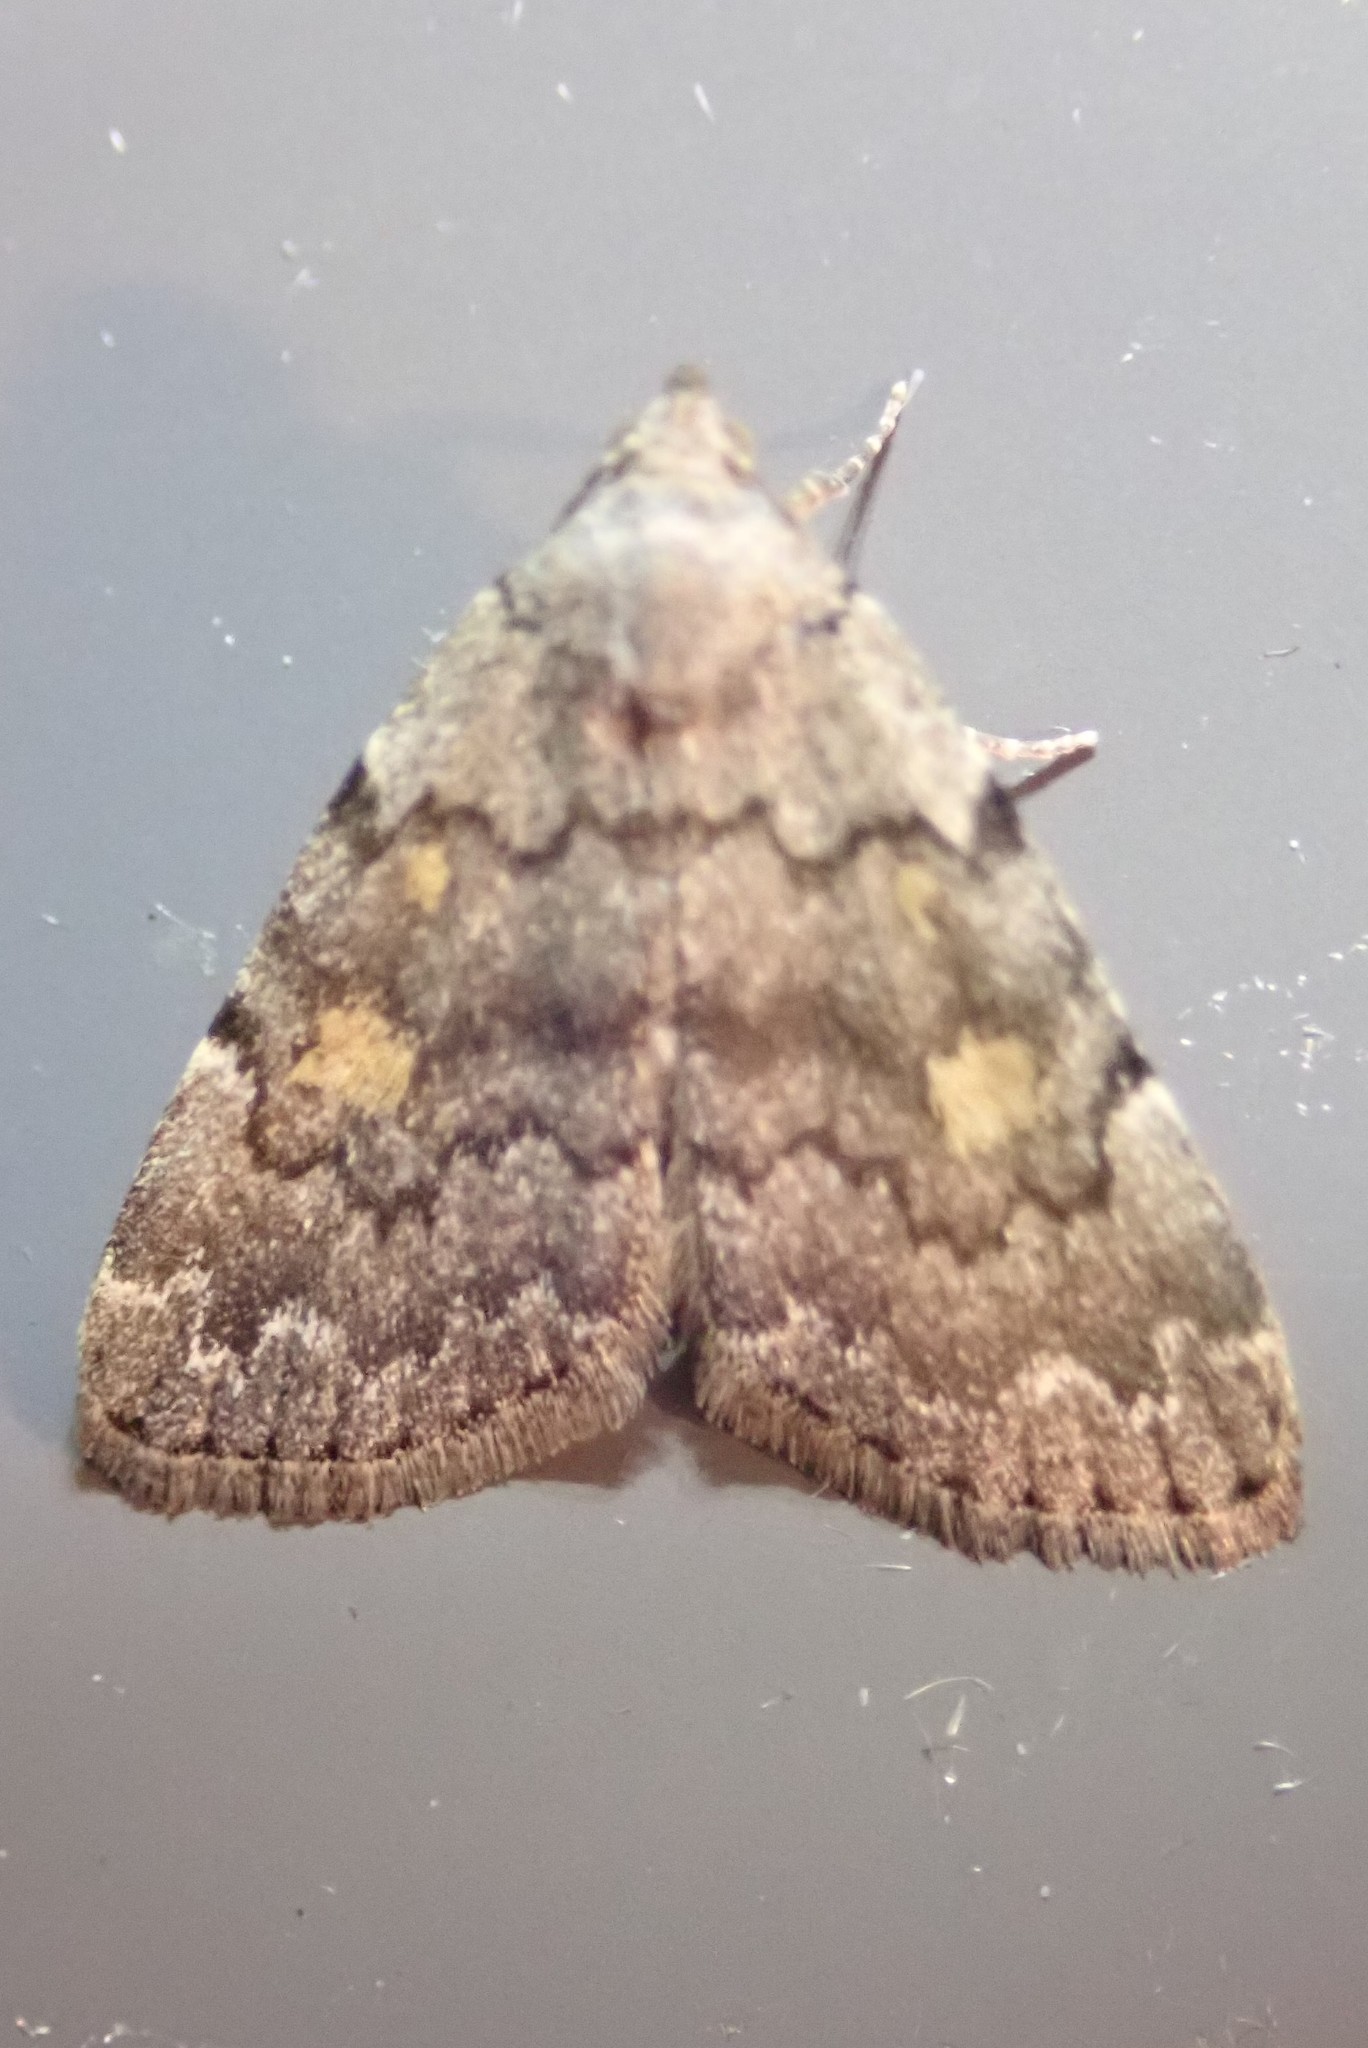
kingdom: Animalia
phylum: Arthropoda
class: Insecta
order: Lepidoptera
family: Erebidae
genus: Idia
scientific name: Idia aemula
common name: Common idia moth
